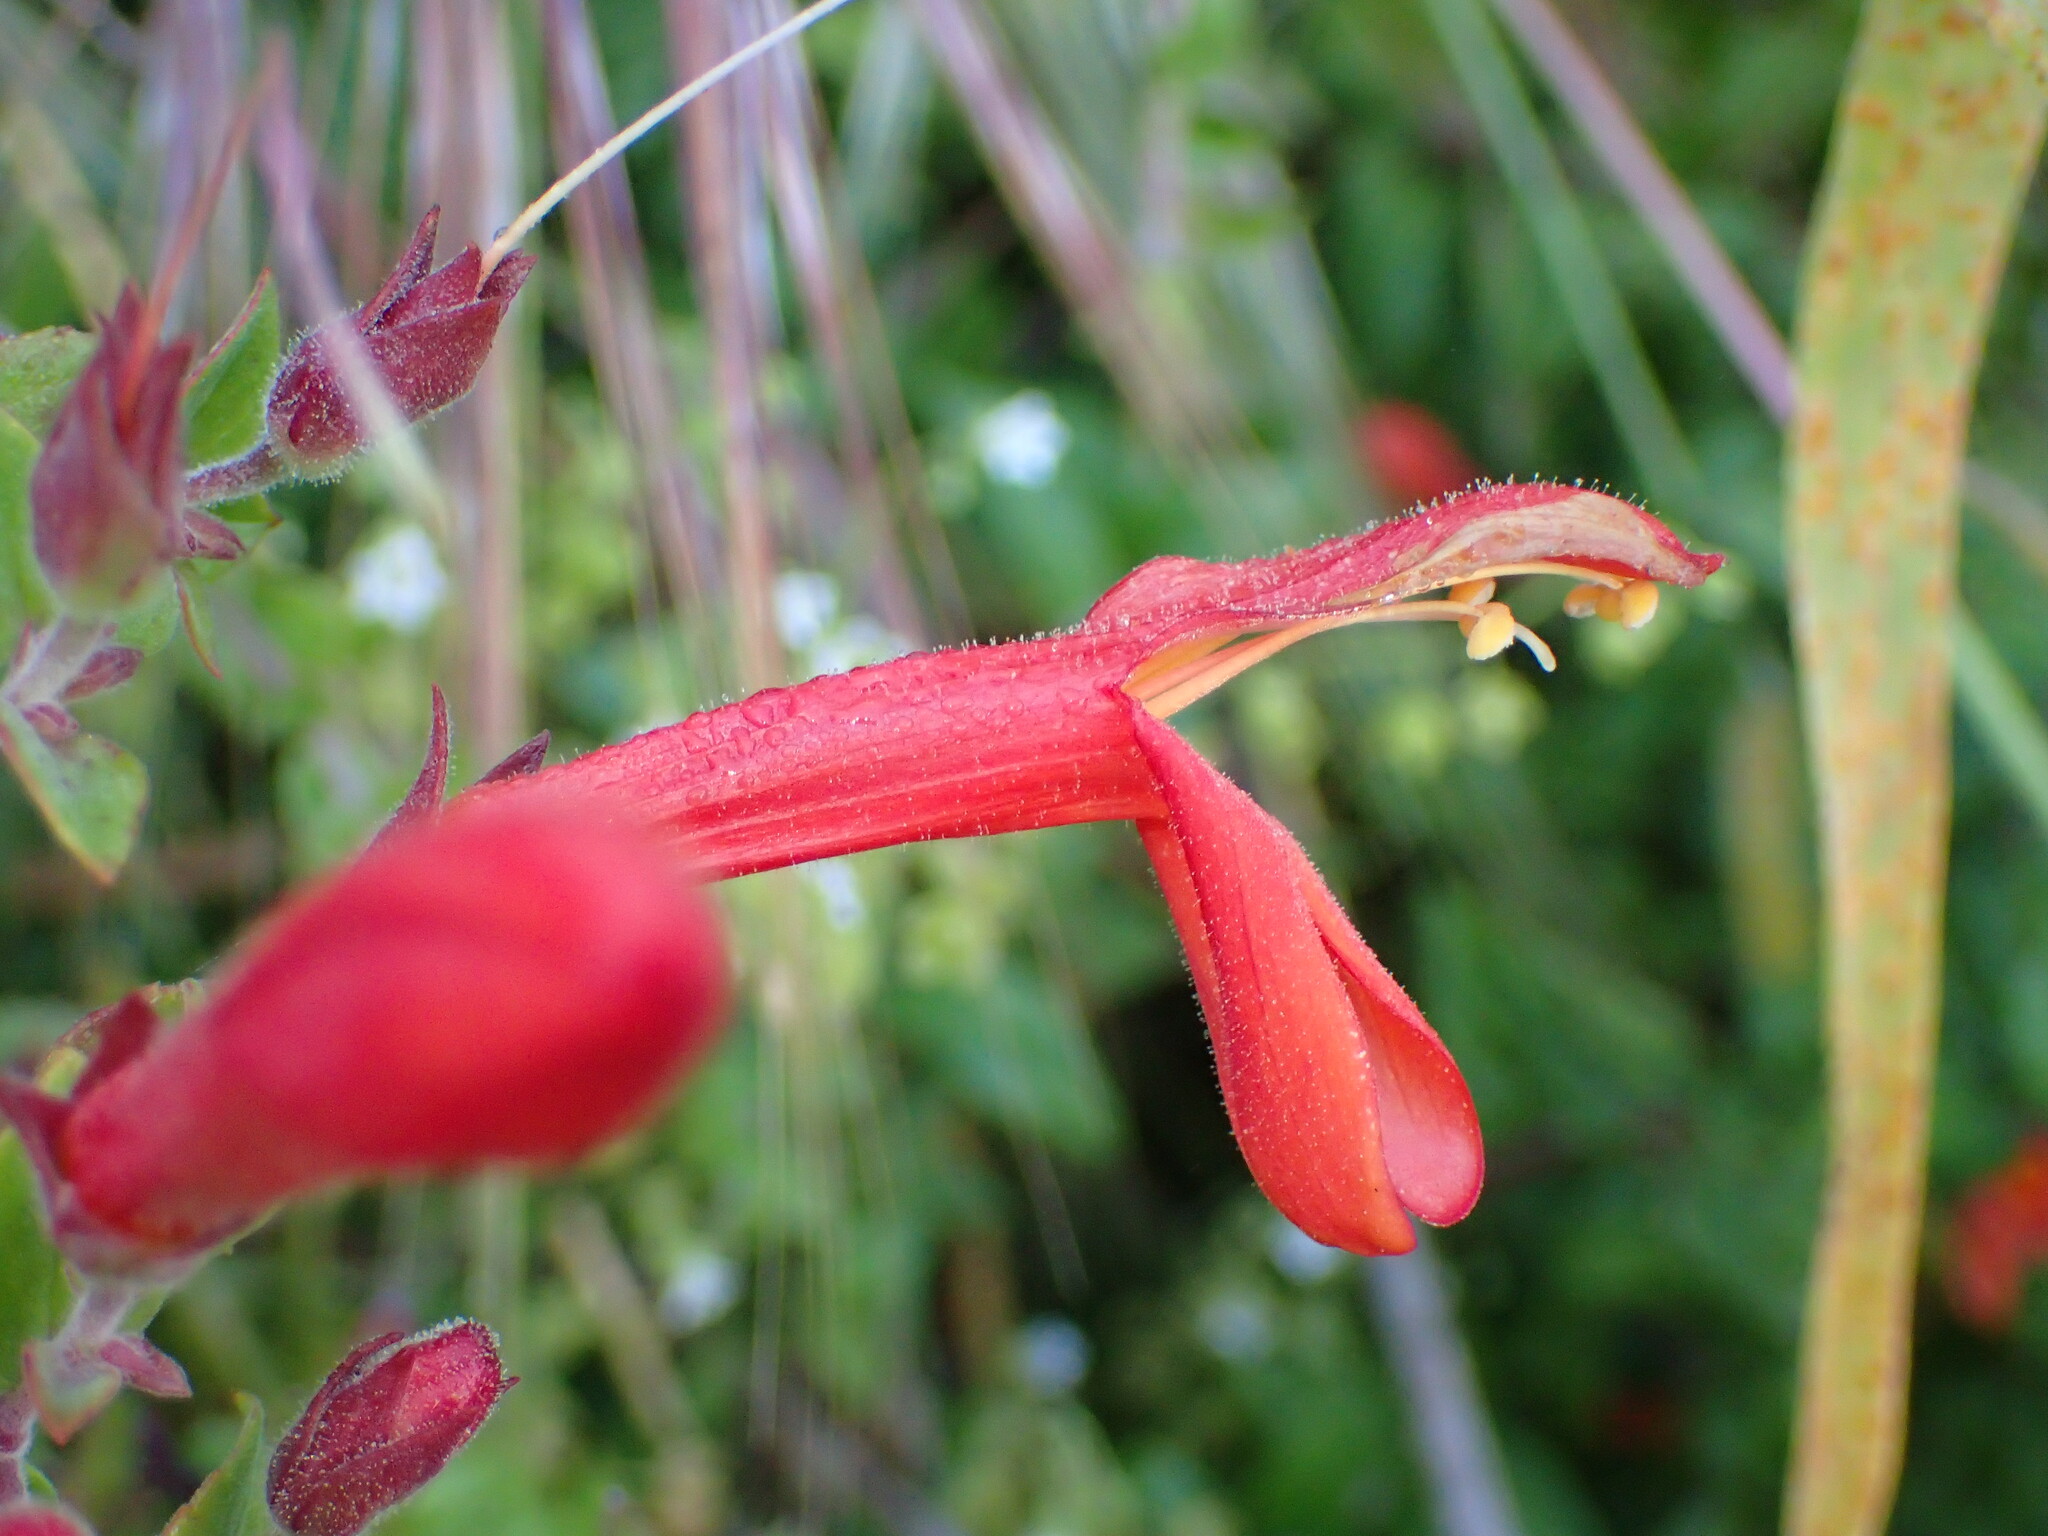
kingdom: Plantae
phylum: Tracheophyta
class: Magnoliopsida
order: Lamiales
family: Plantaginaceae
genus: Keckiella
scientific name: Keckiella cordifolia
